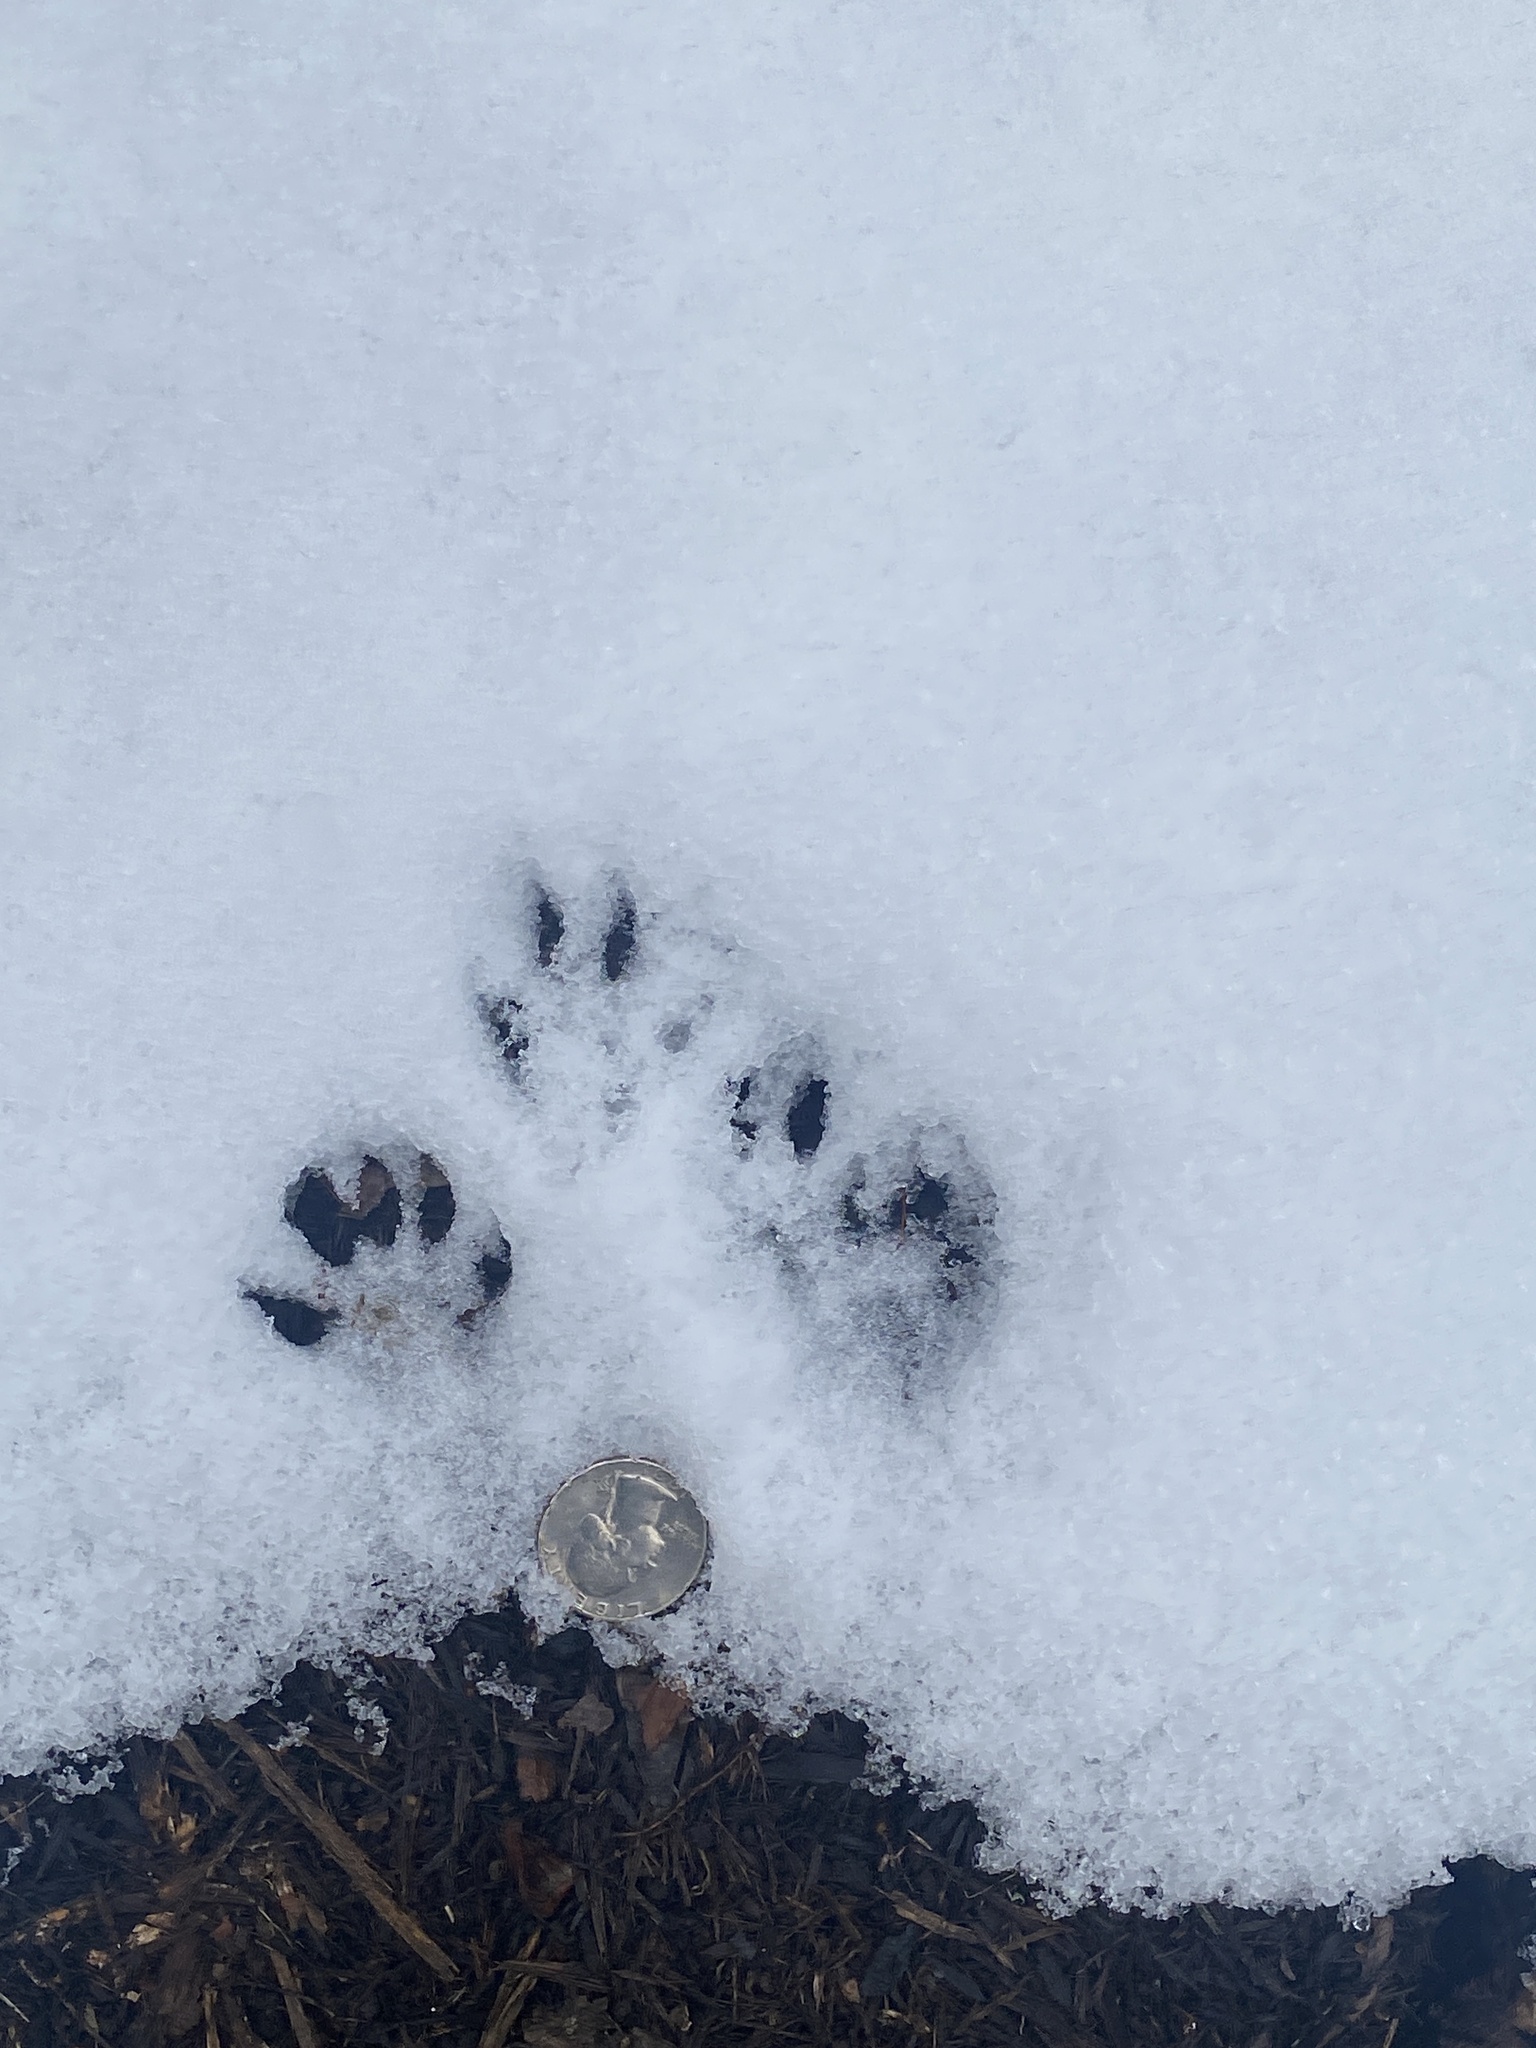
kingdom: Animalia
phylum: Chordata
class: Mammalia
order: Rodentia
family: Sciuridae
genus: Sciurus
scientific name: Sciurus carolinensis
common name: Eastern gray squirrel
